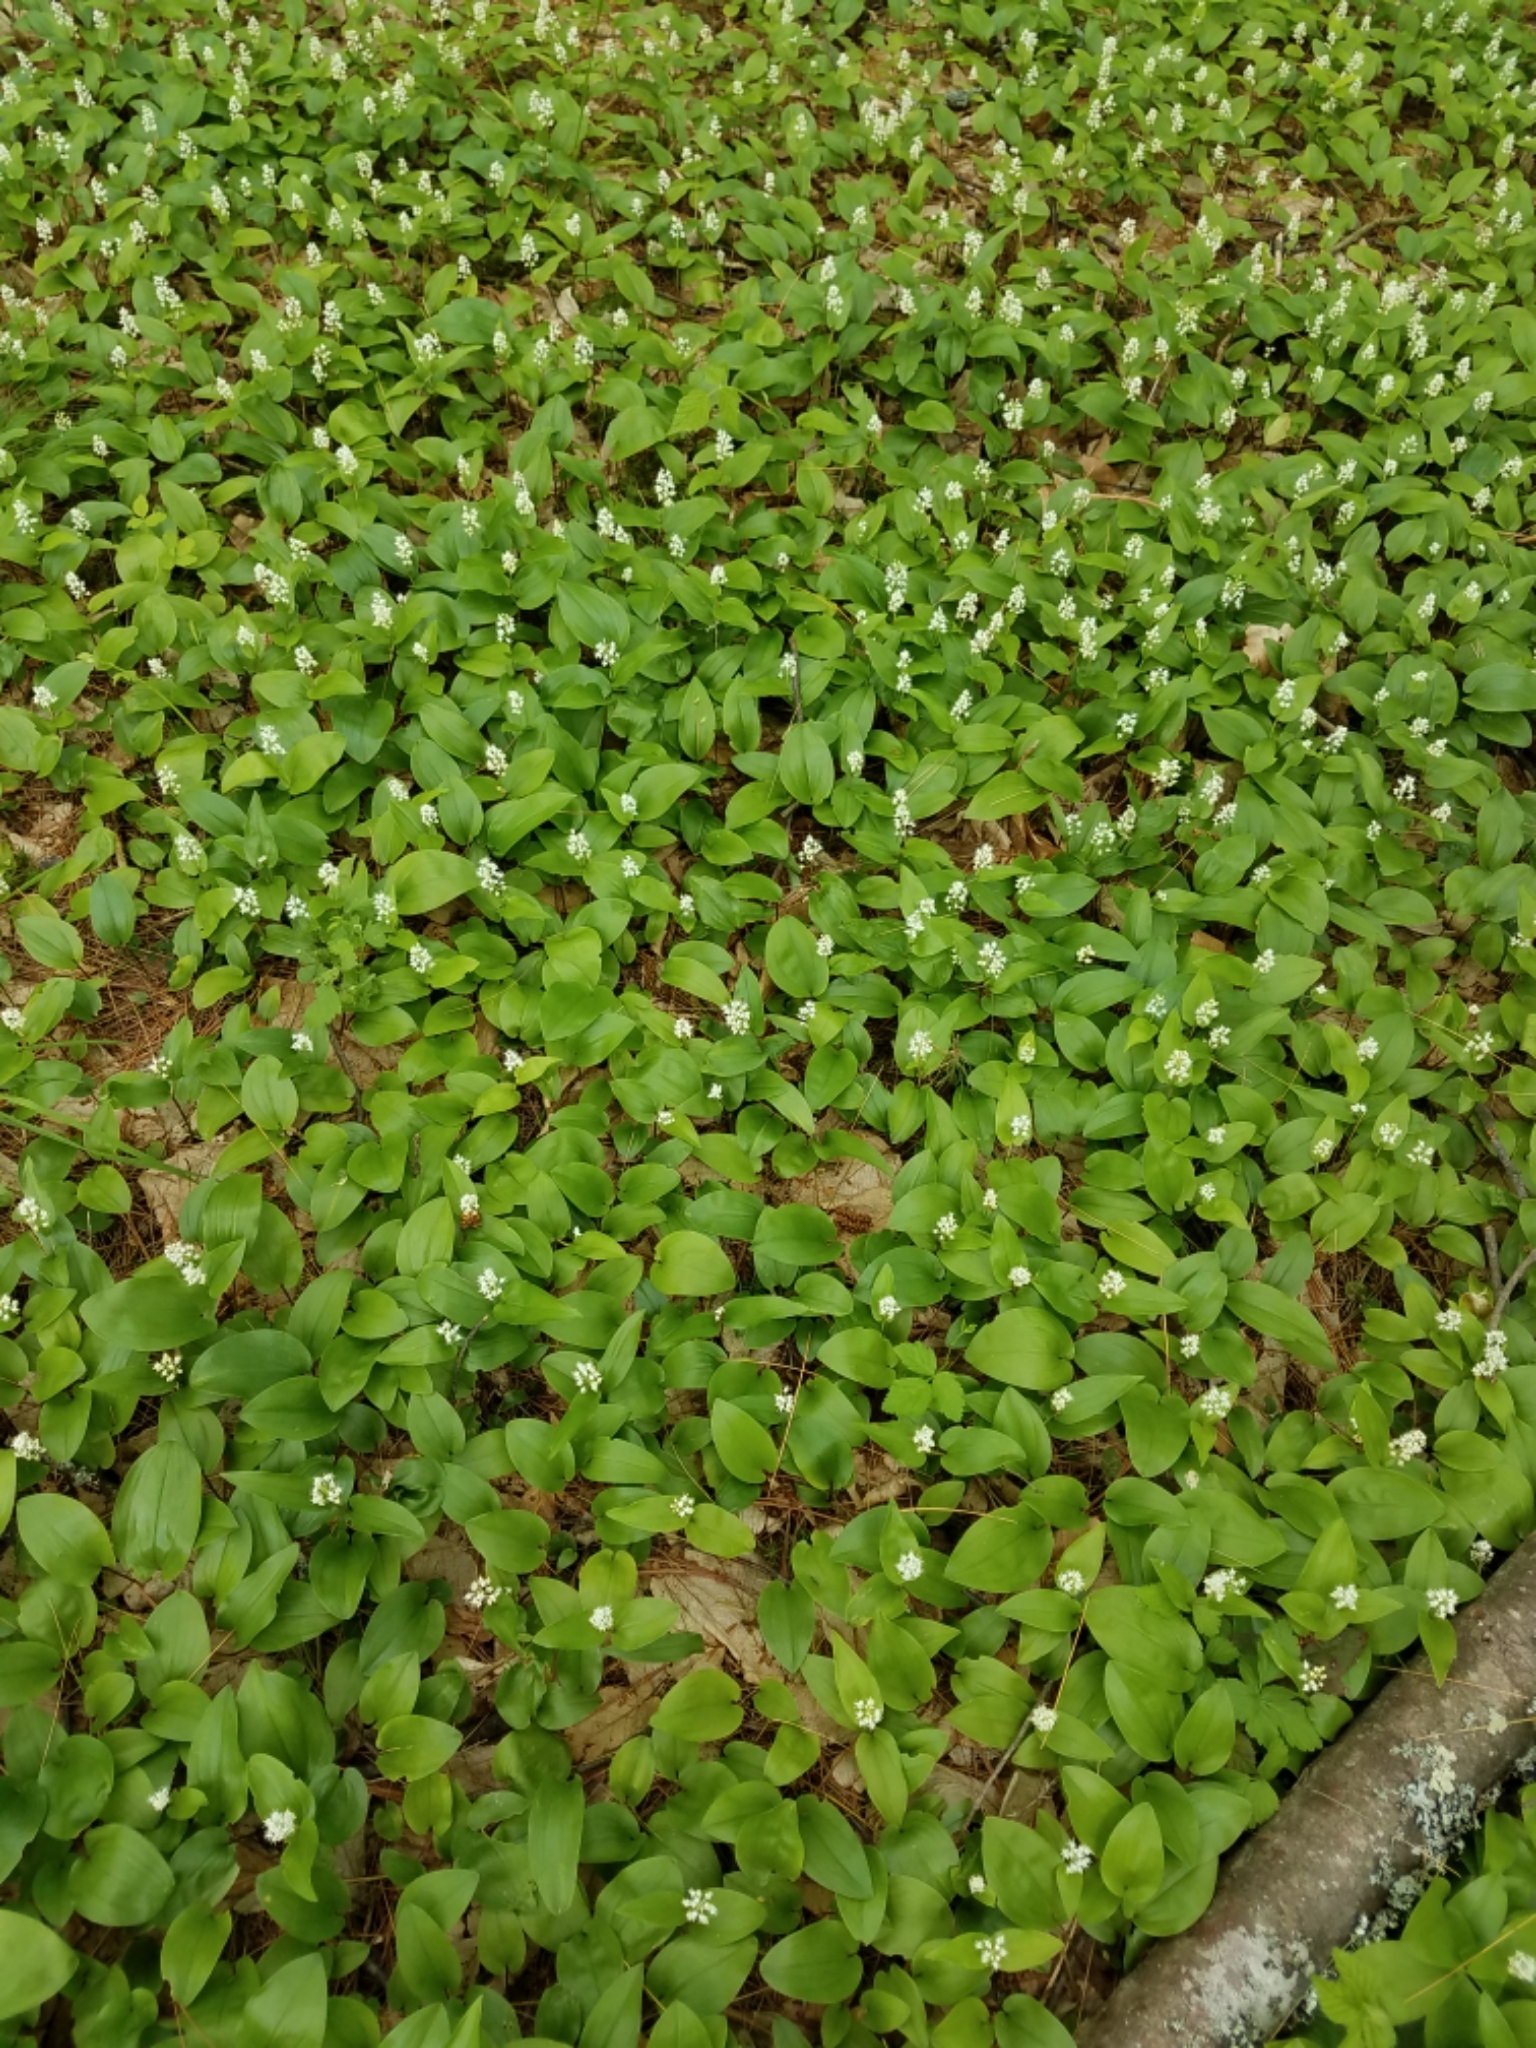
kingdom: Plantae
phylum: Tracheophyta
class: Liliopsida
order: Asparagales
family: Asparagaceae
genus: Maianthemum
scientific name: Maianthemum canadense
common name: False lily-of-the-valley
